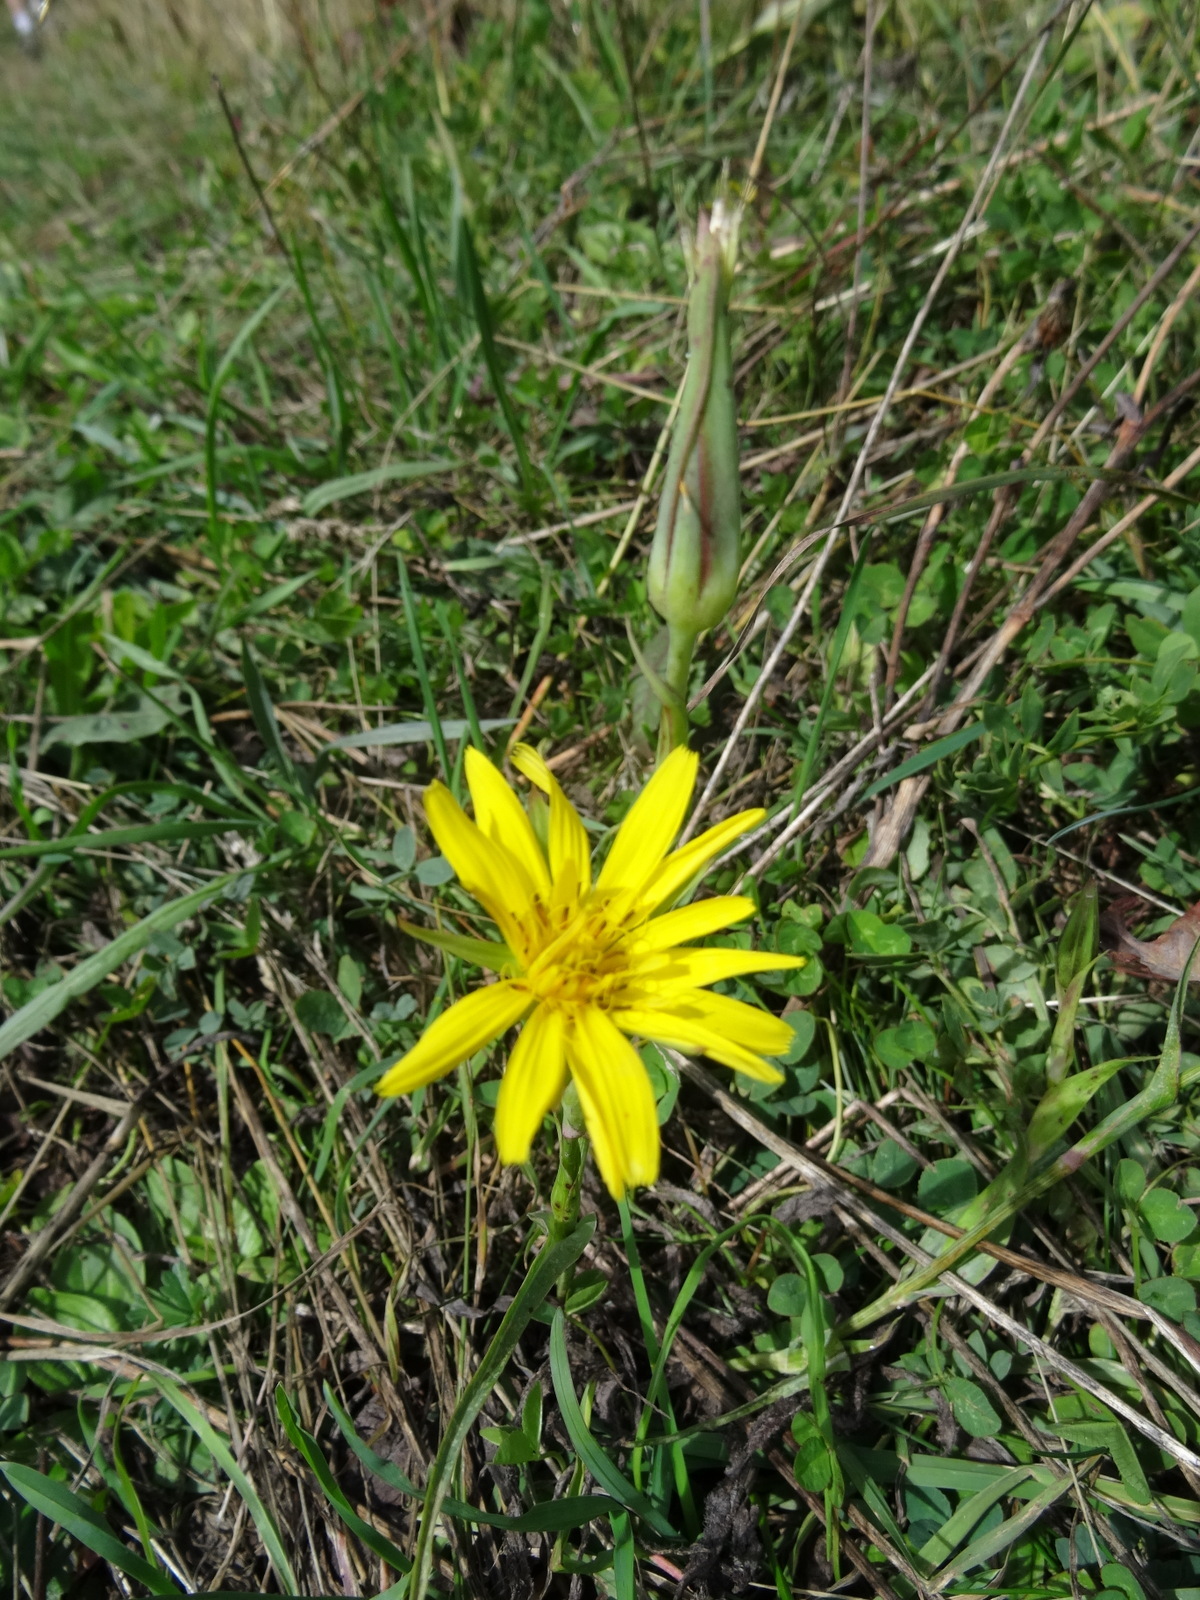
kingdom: Plantae
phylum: Tracheophyta
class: Magnoliopsida
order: Asterales
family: Asteraceae
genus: Tragopogon
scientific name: Tragopogon pratensis
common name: Goat's-beard
